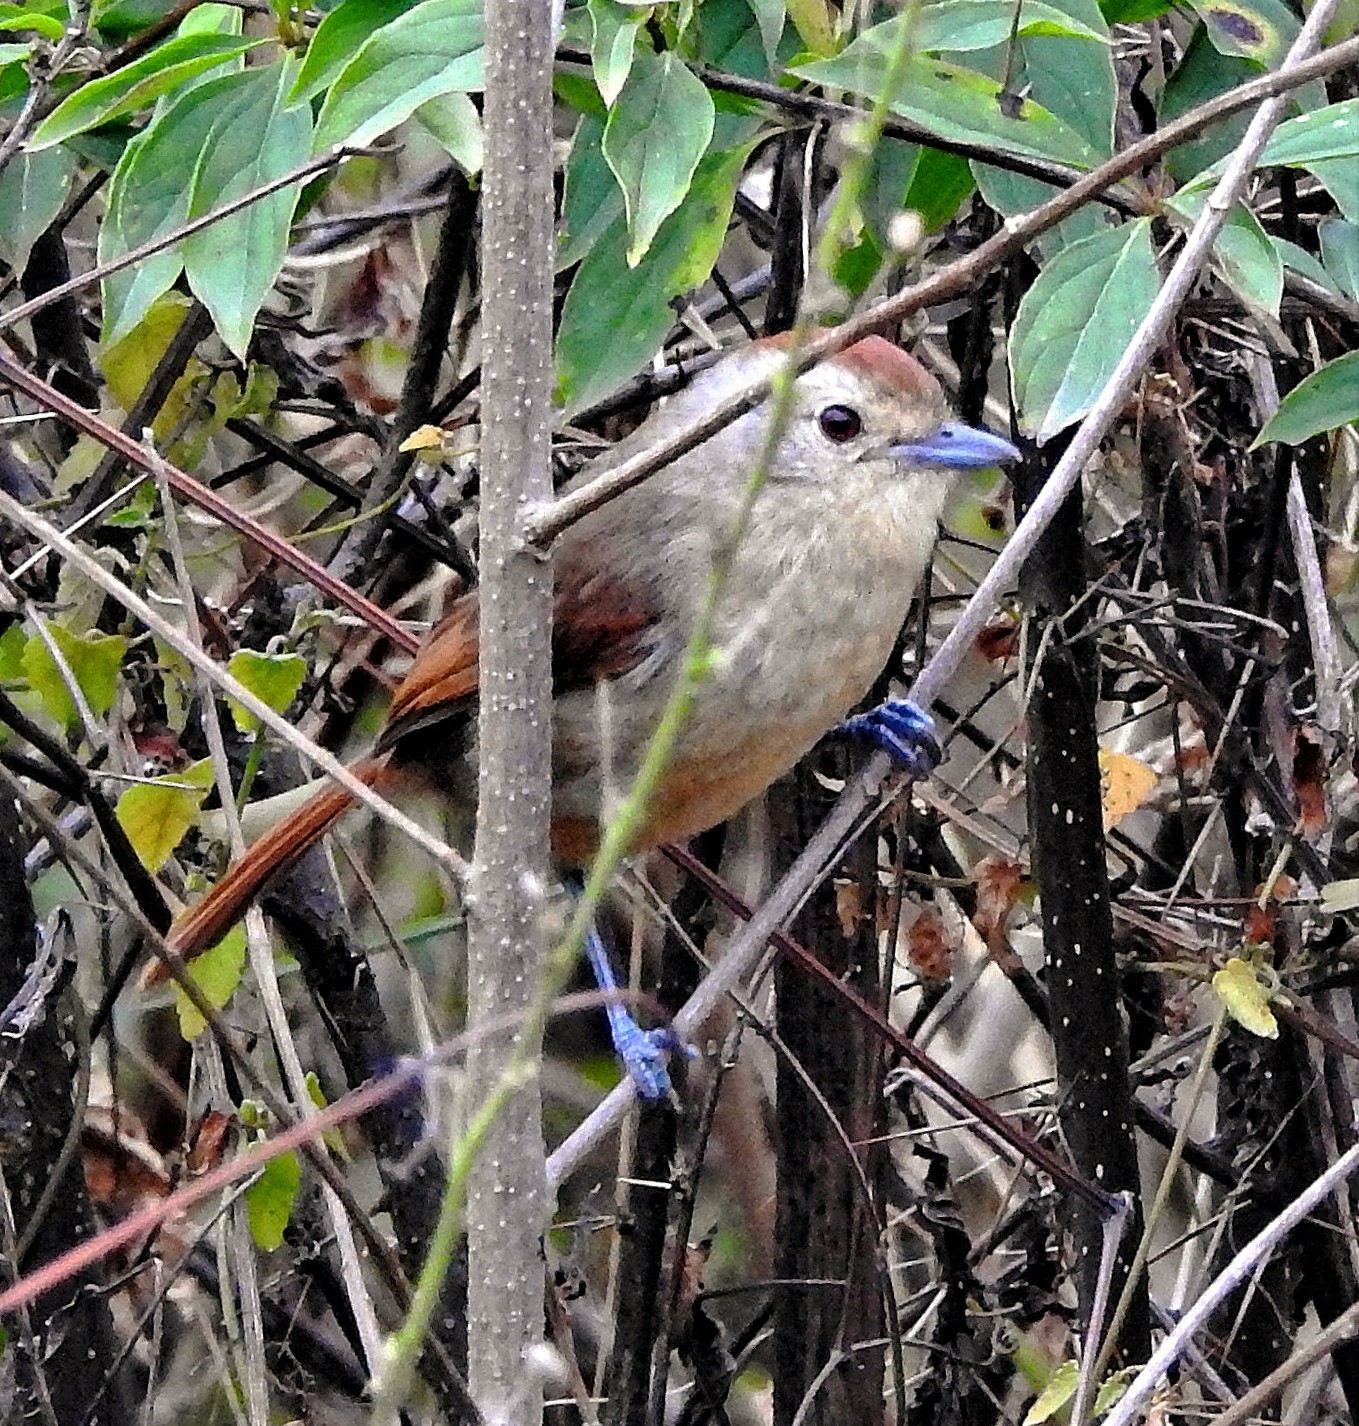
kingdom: Animalia
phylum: Chordata
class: Aves
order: Passeriformes
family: Thamnophilidae
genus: Thamnophilus
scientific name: Thamnophilus ruficapillus
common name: Rufous-capped antshrike
